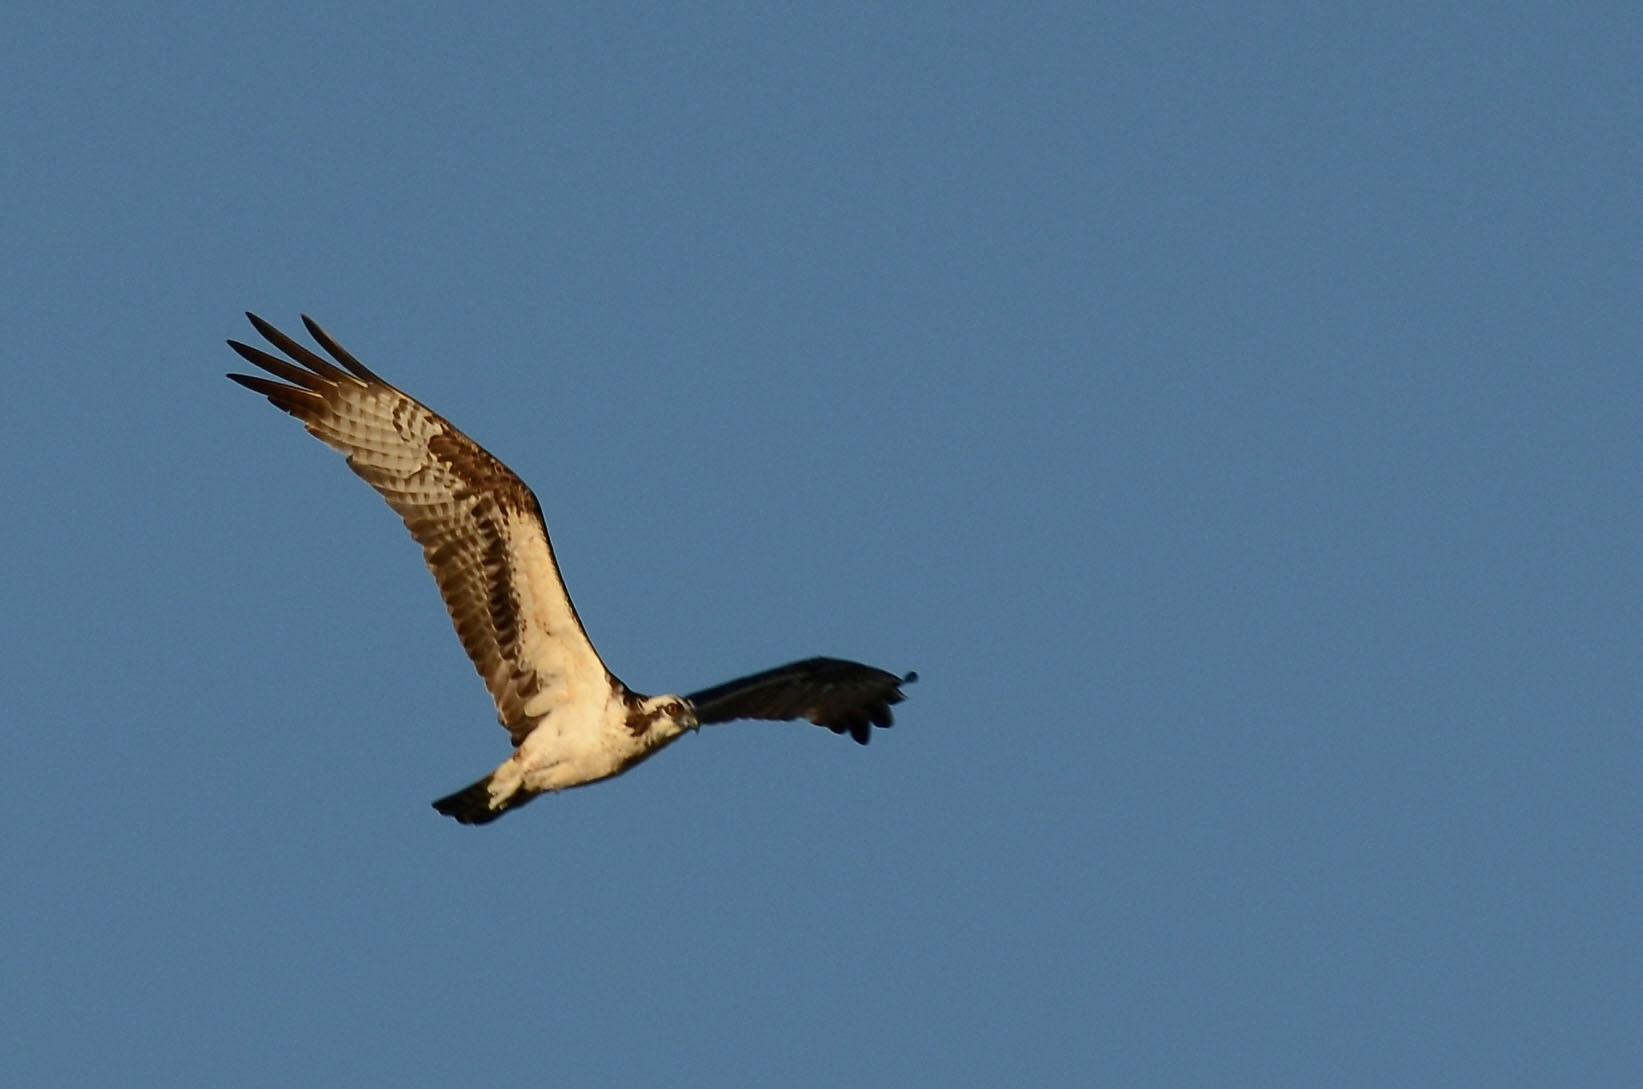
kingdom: Animalia
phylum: Chordata
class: Aves
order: Accipitriformes
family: Pandionidae
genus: Pandion
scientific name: Pandion haliaetus
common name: Osprey
